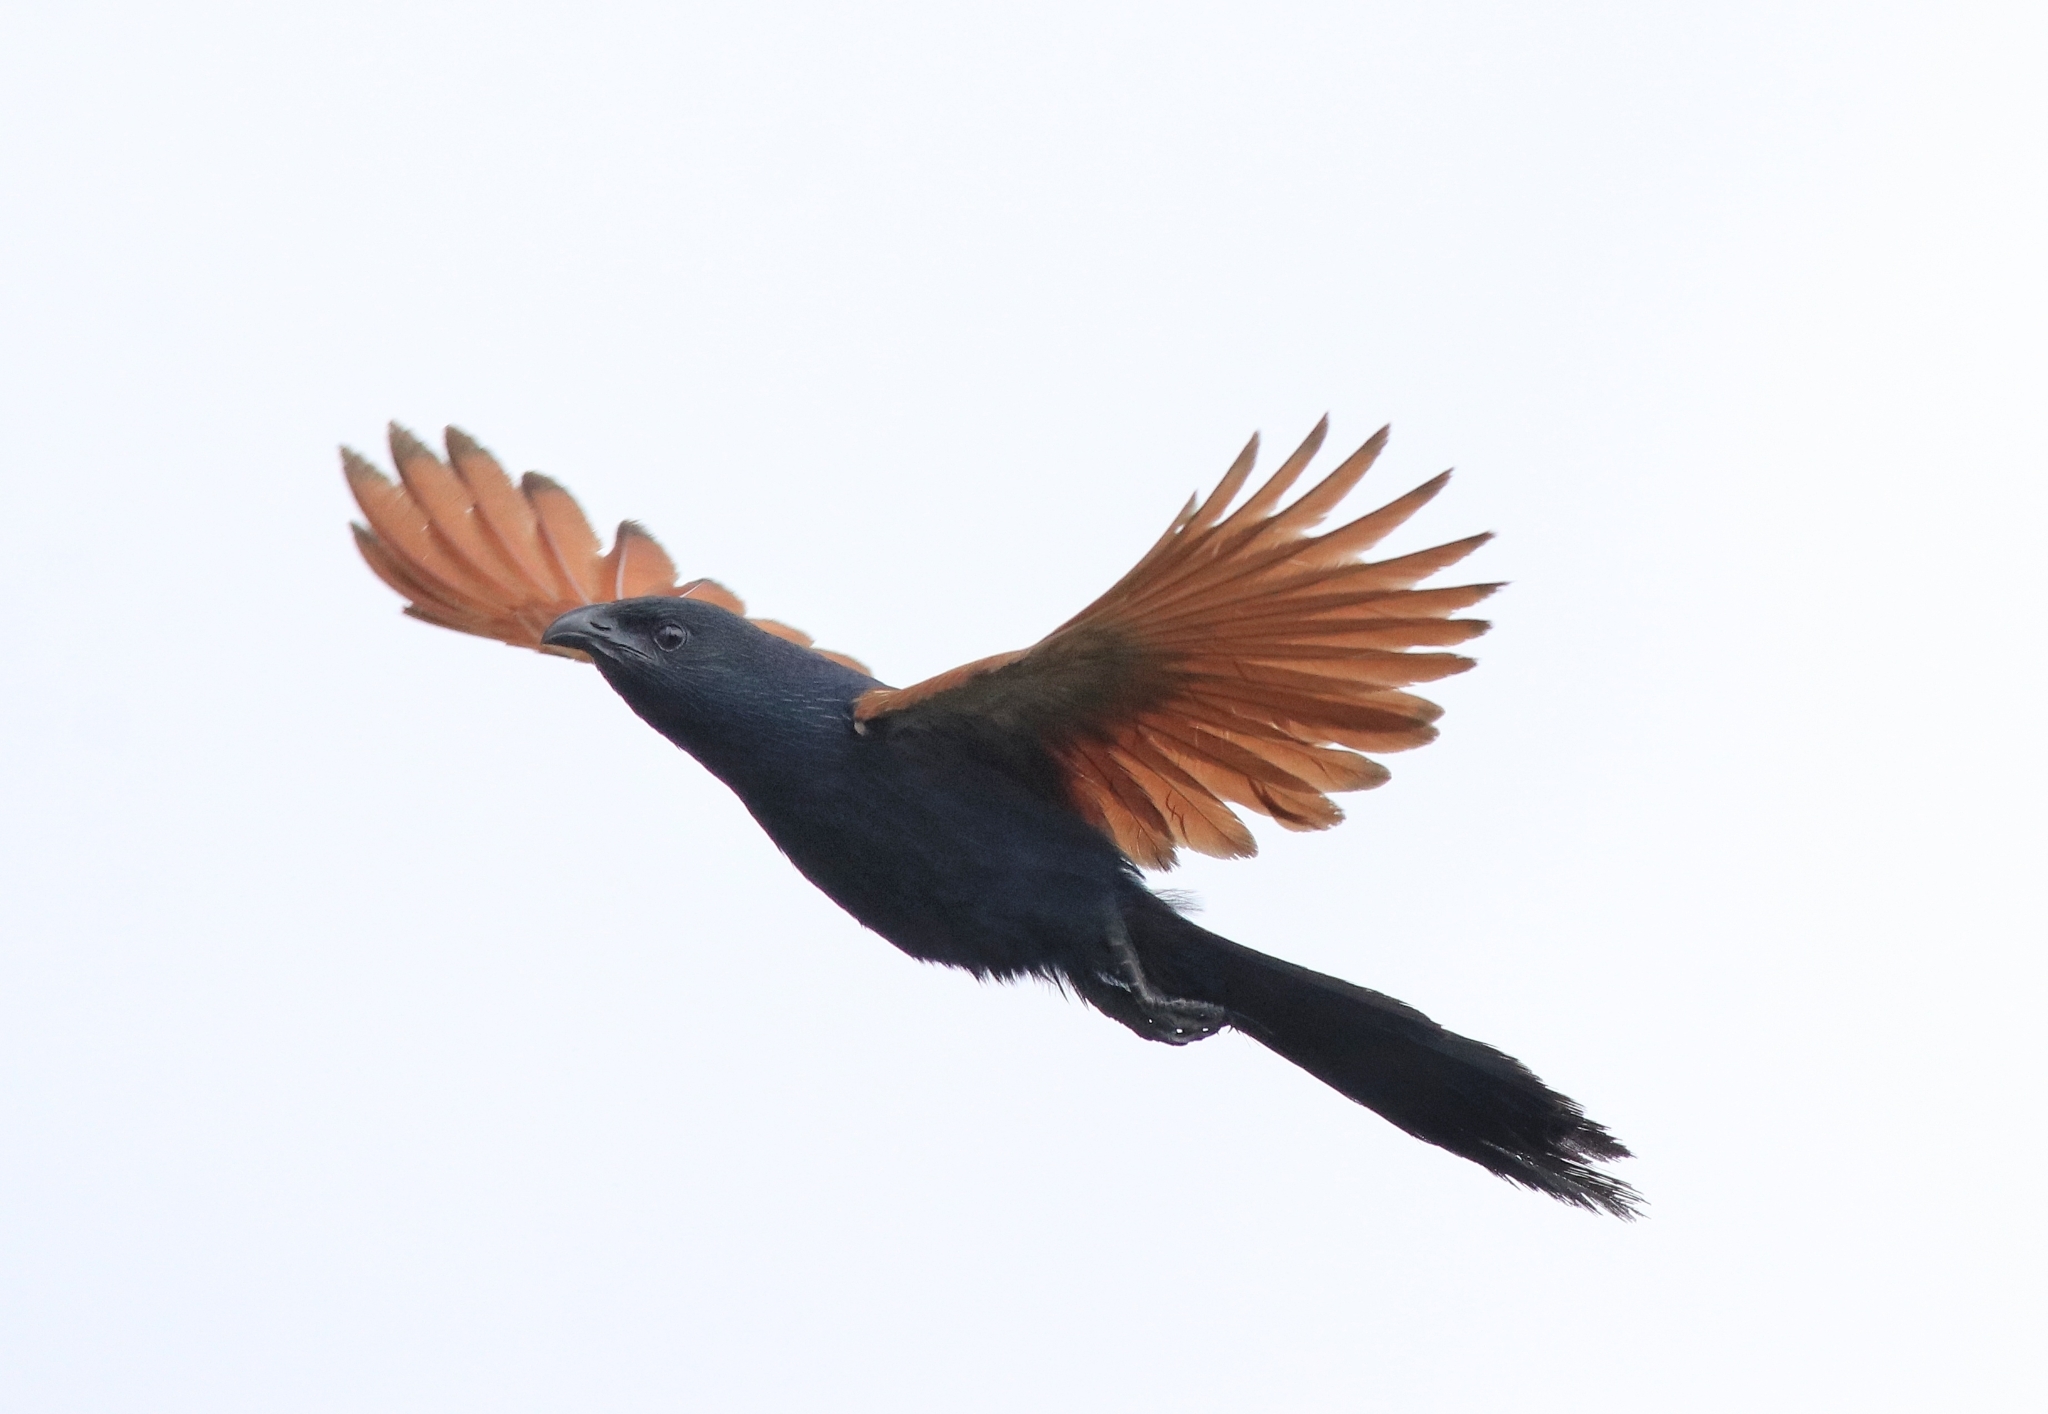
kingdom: Animalia
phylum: Chordata
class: Aves
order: Cuculiformes
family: Cuculidae
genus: Centropus
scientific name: Centropus bengalensis
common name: Lesser coucal
